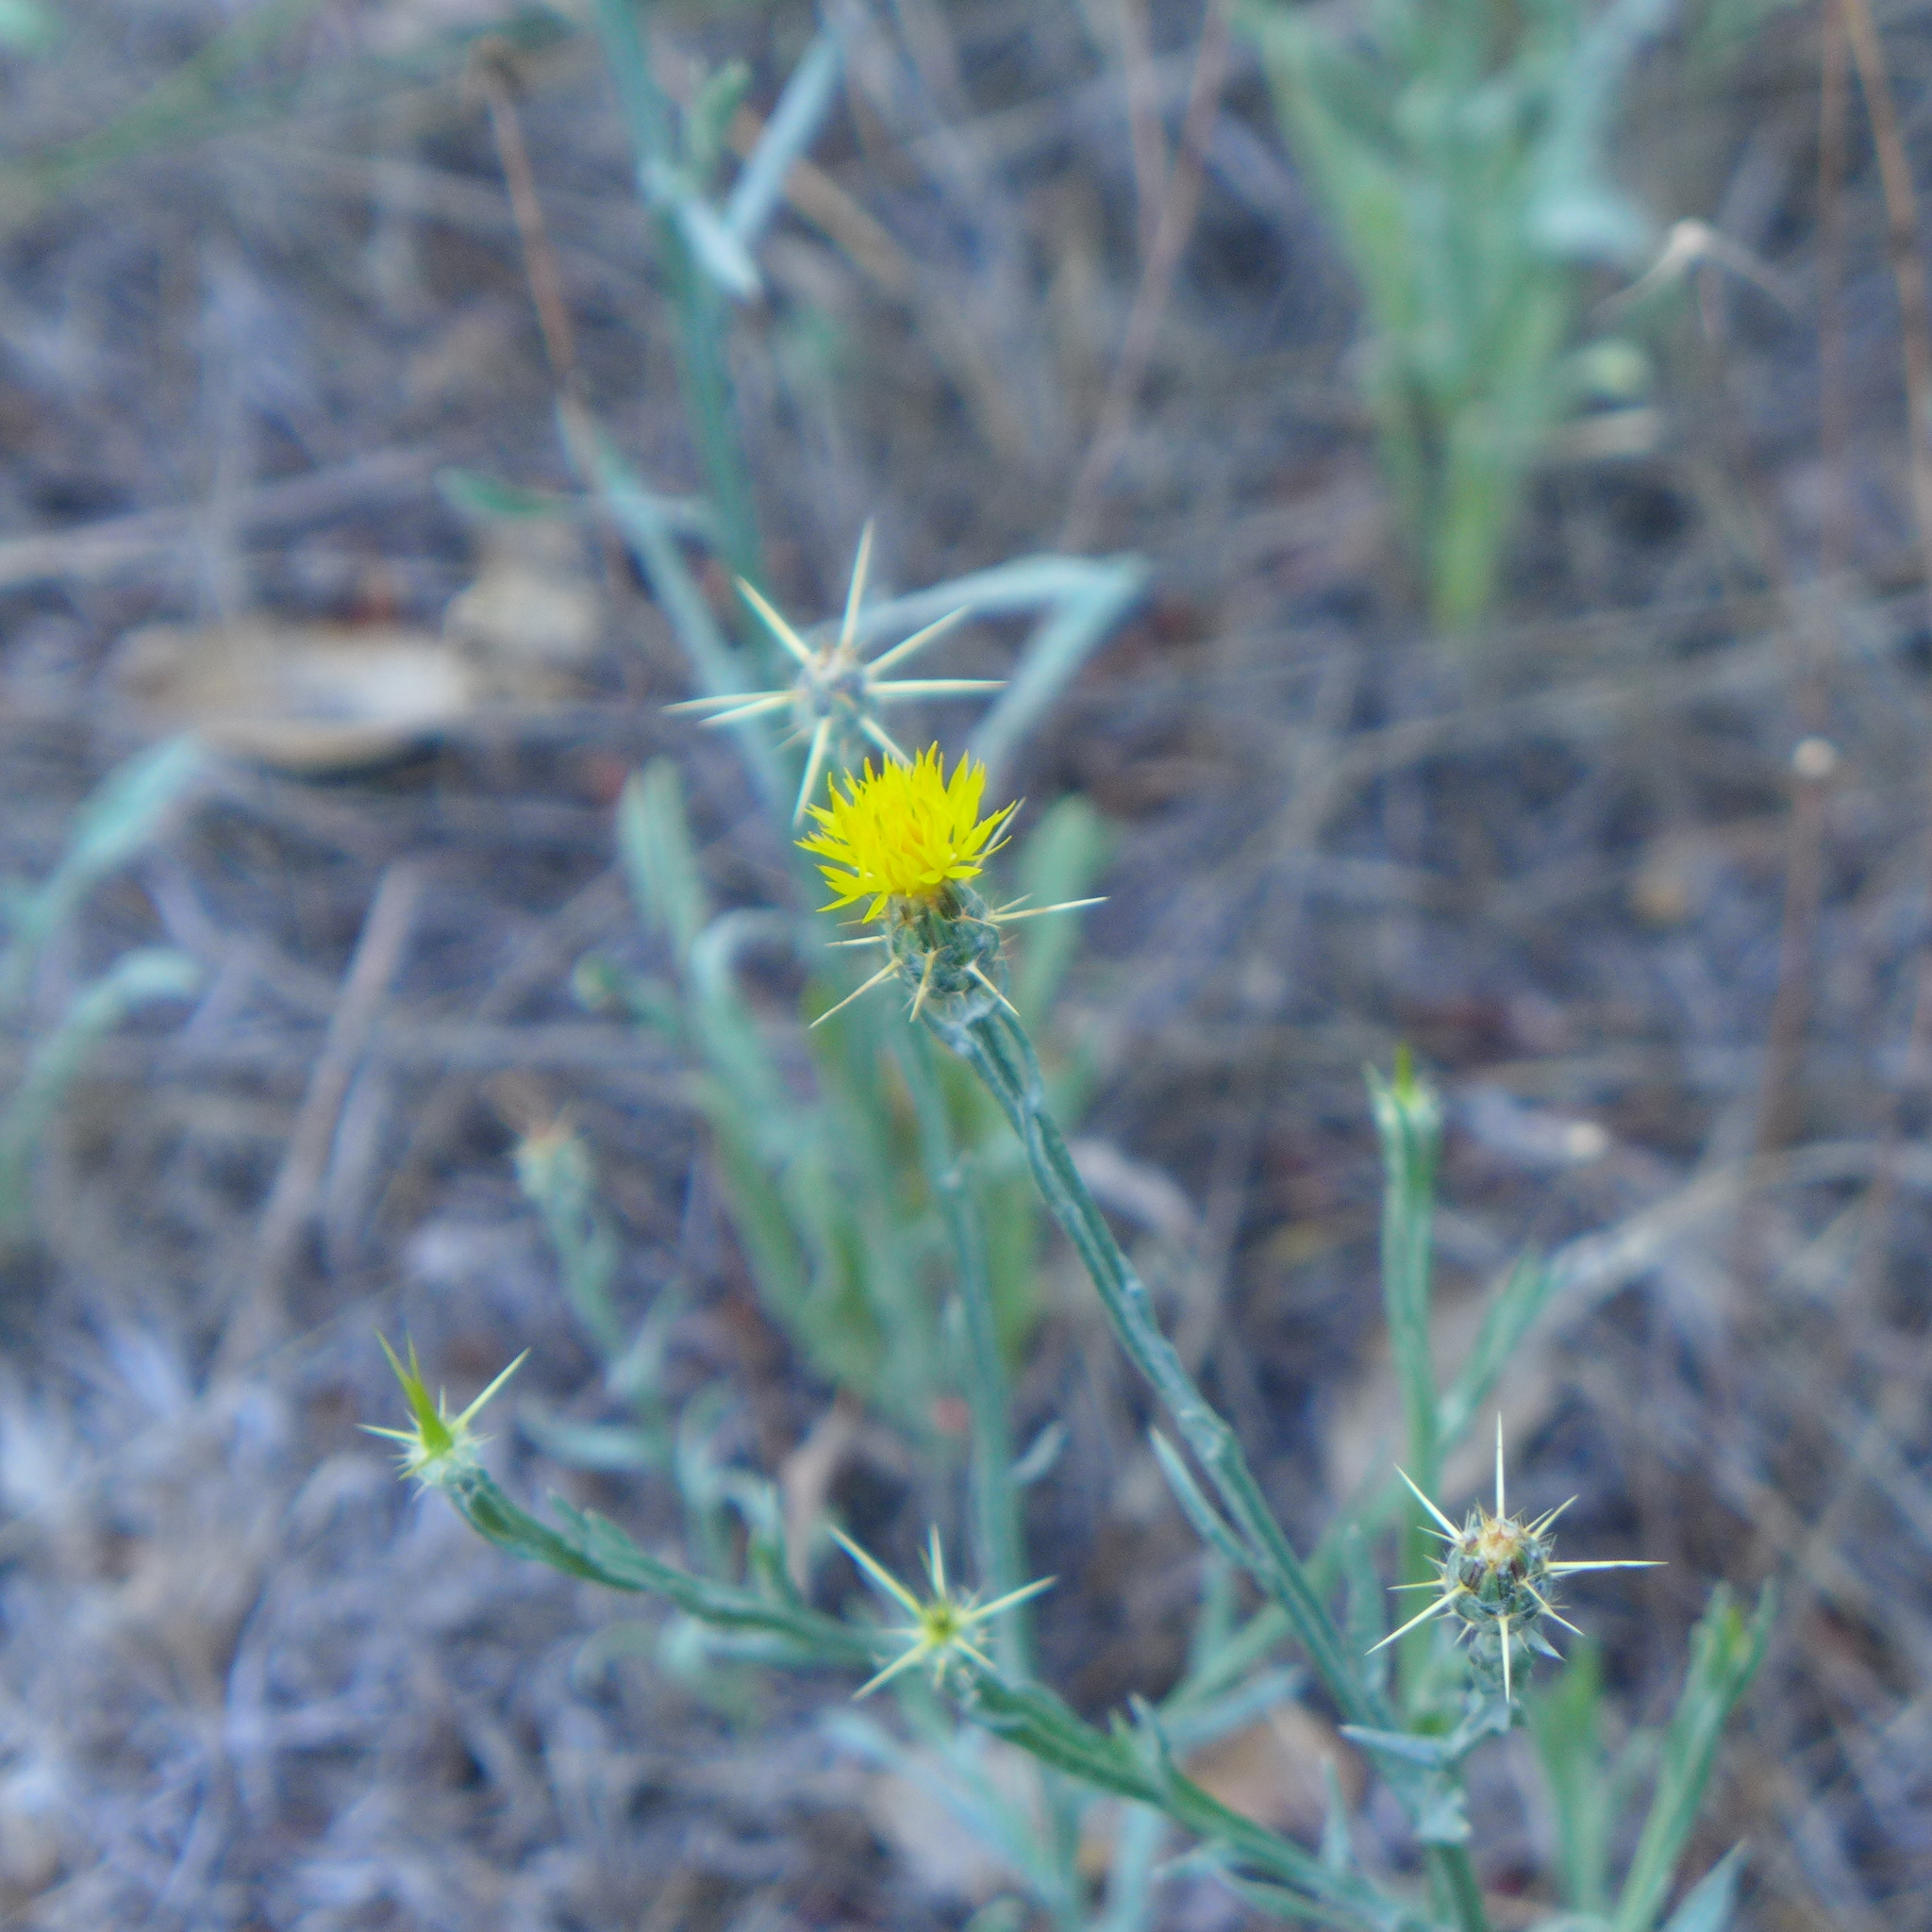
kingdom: Plantae
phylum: Tracheophyta
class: Magnoliopsida
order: Asterales
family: Asteraceae
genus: Centaurea
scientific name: Centaurea solstitialis
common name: Yellow star-thistle
